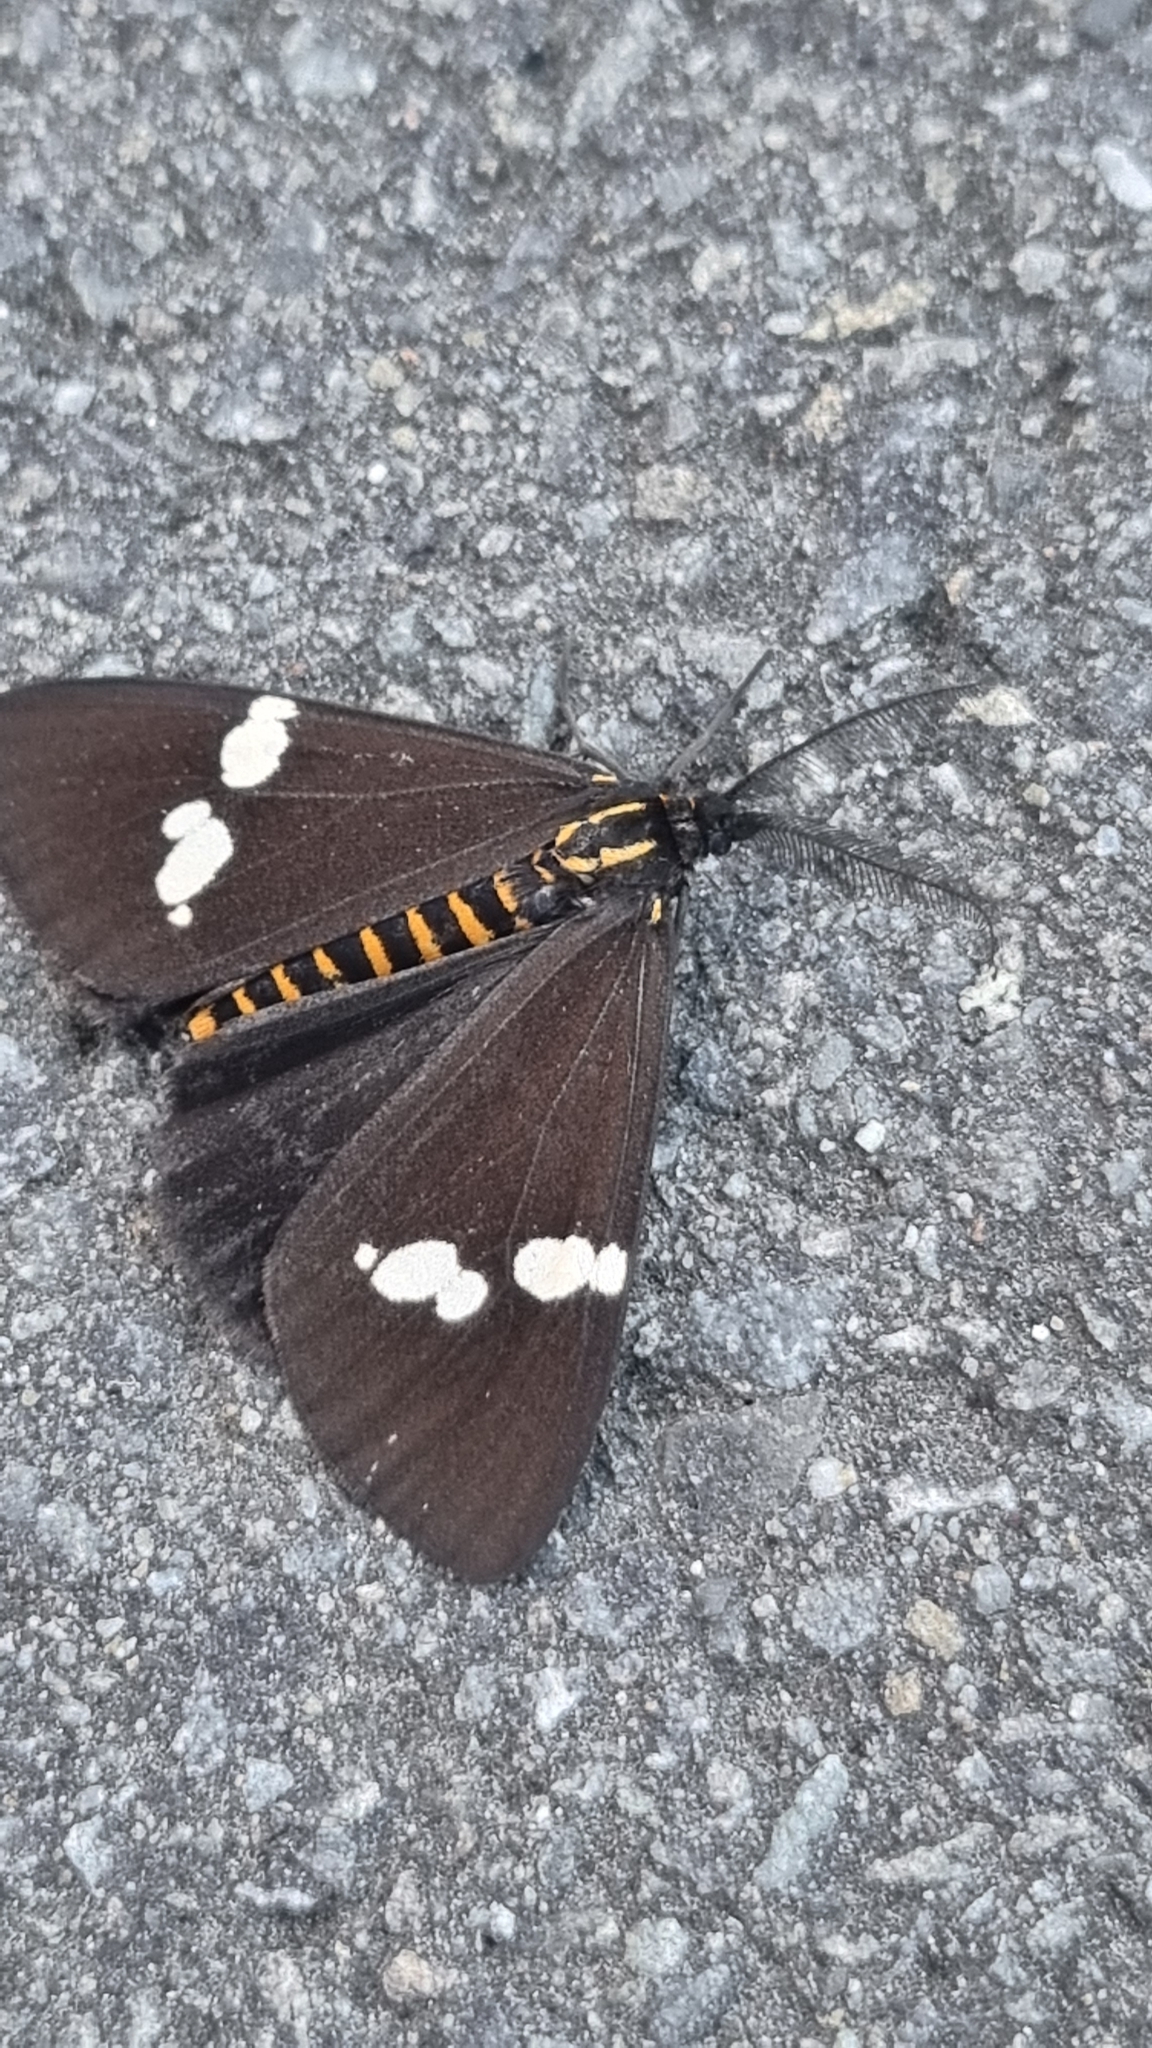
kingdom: Animalia
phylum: Arthropoda
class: Insecta
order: Lepidoptera
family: Erebidae
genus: Nyctemera
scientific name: Nyctemera annulatum
